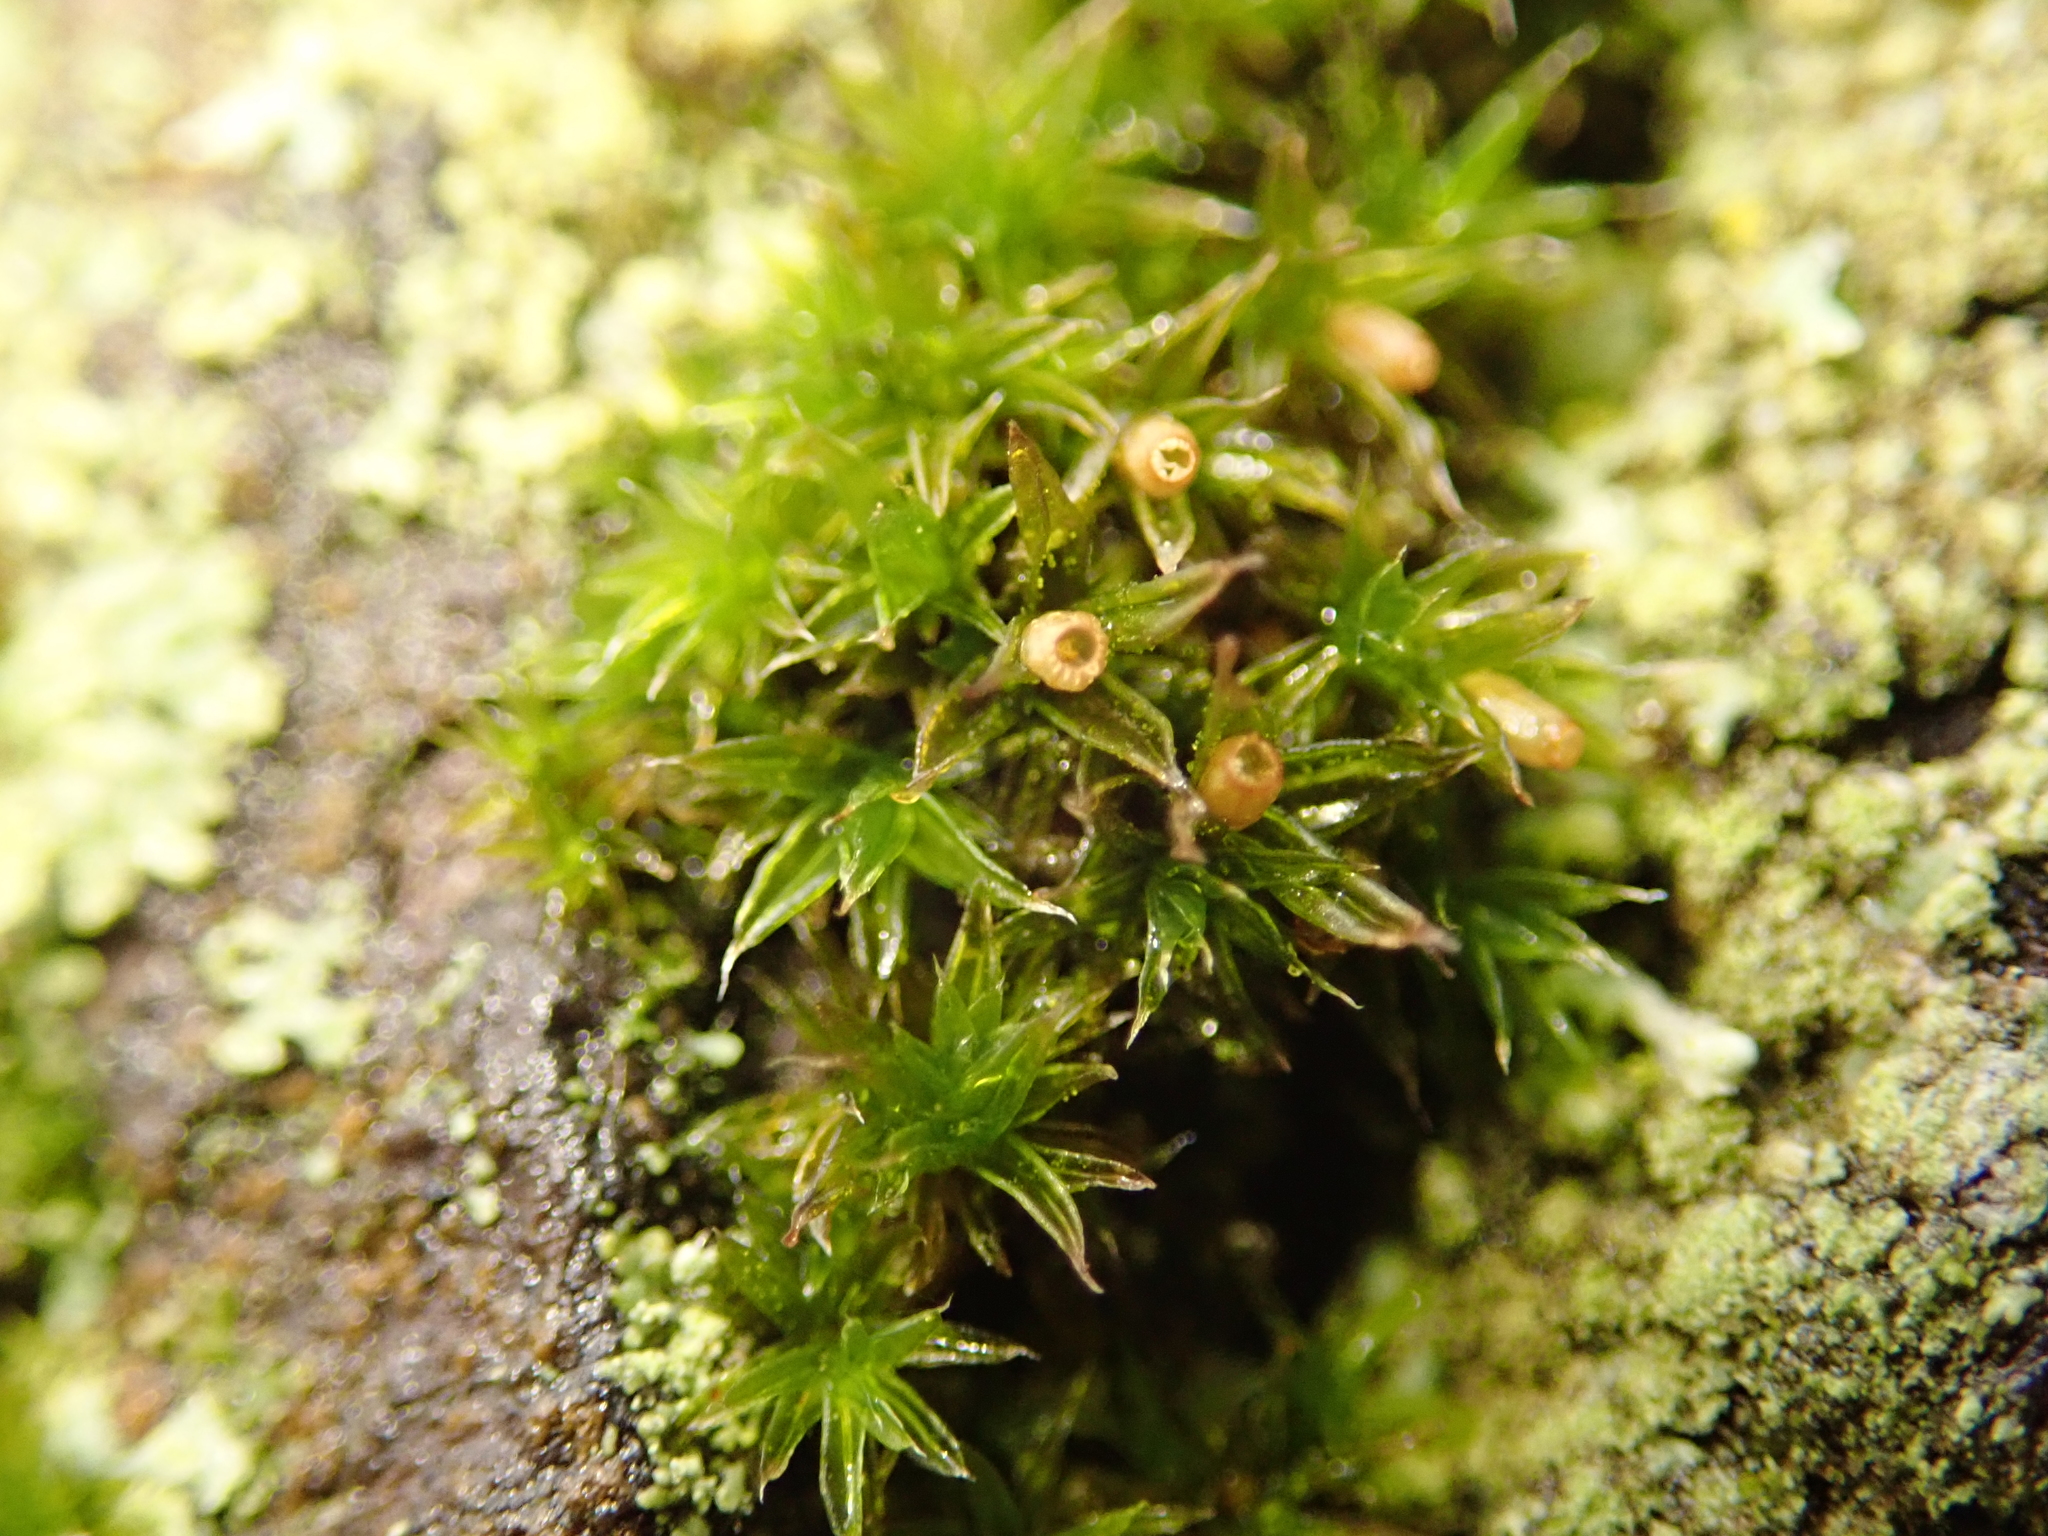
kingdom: Plantae
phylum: Bryophyta
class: Bryopsida
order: Orthotrichales
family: Orthotrichaceae
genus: Orthotrichum
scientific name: Orthotrichum diaphanum
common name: White-tipped bristle-moss
